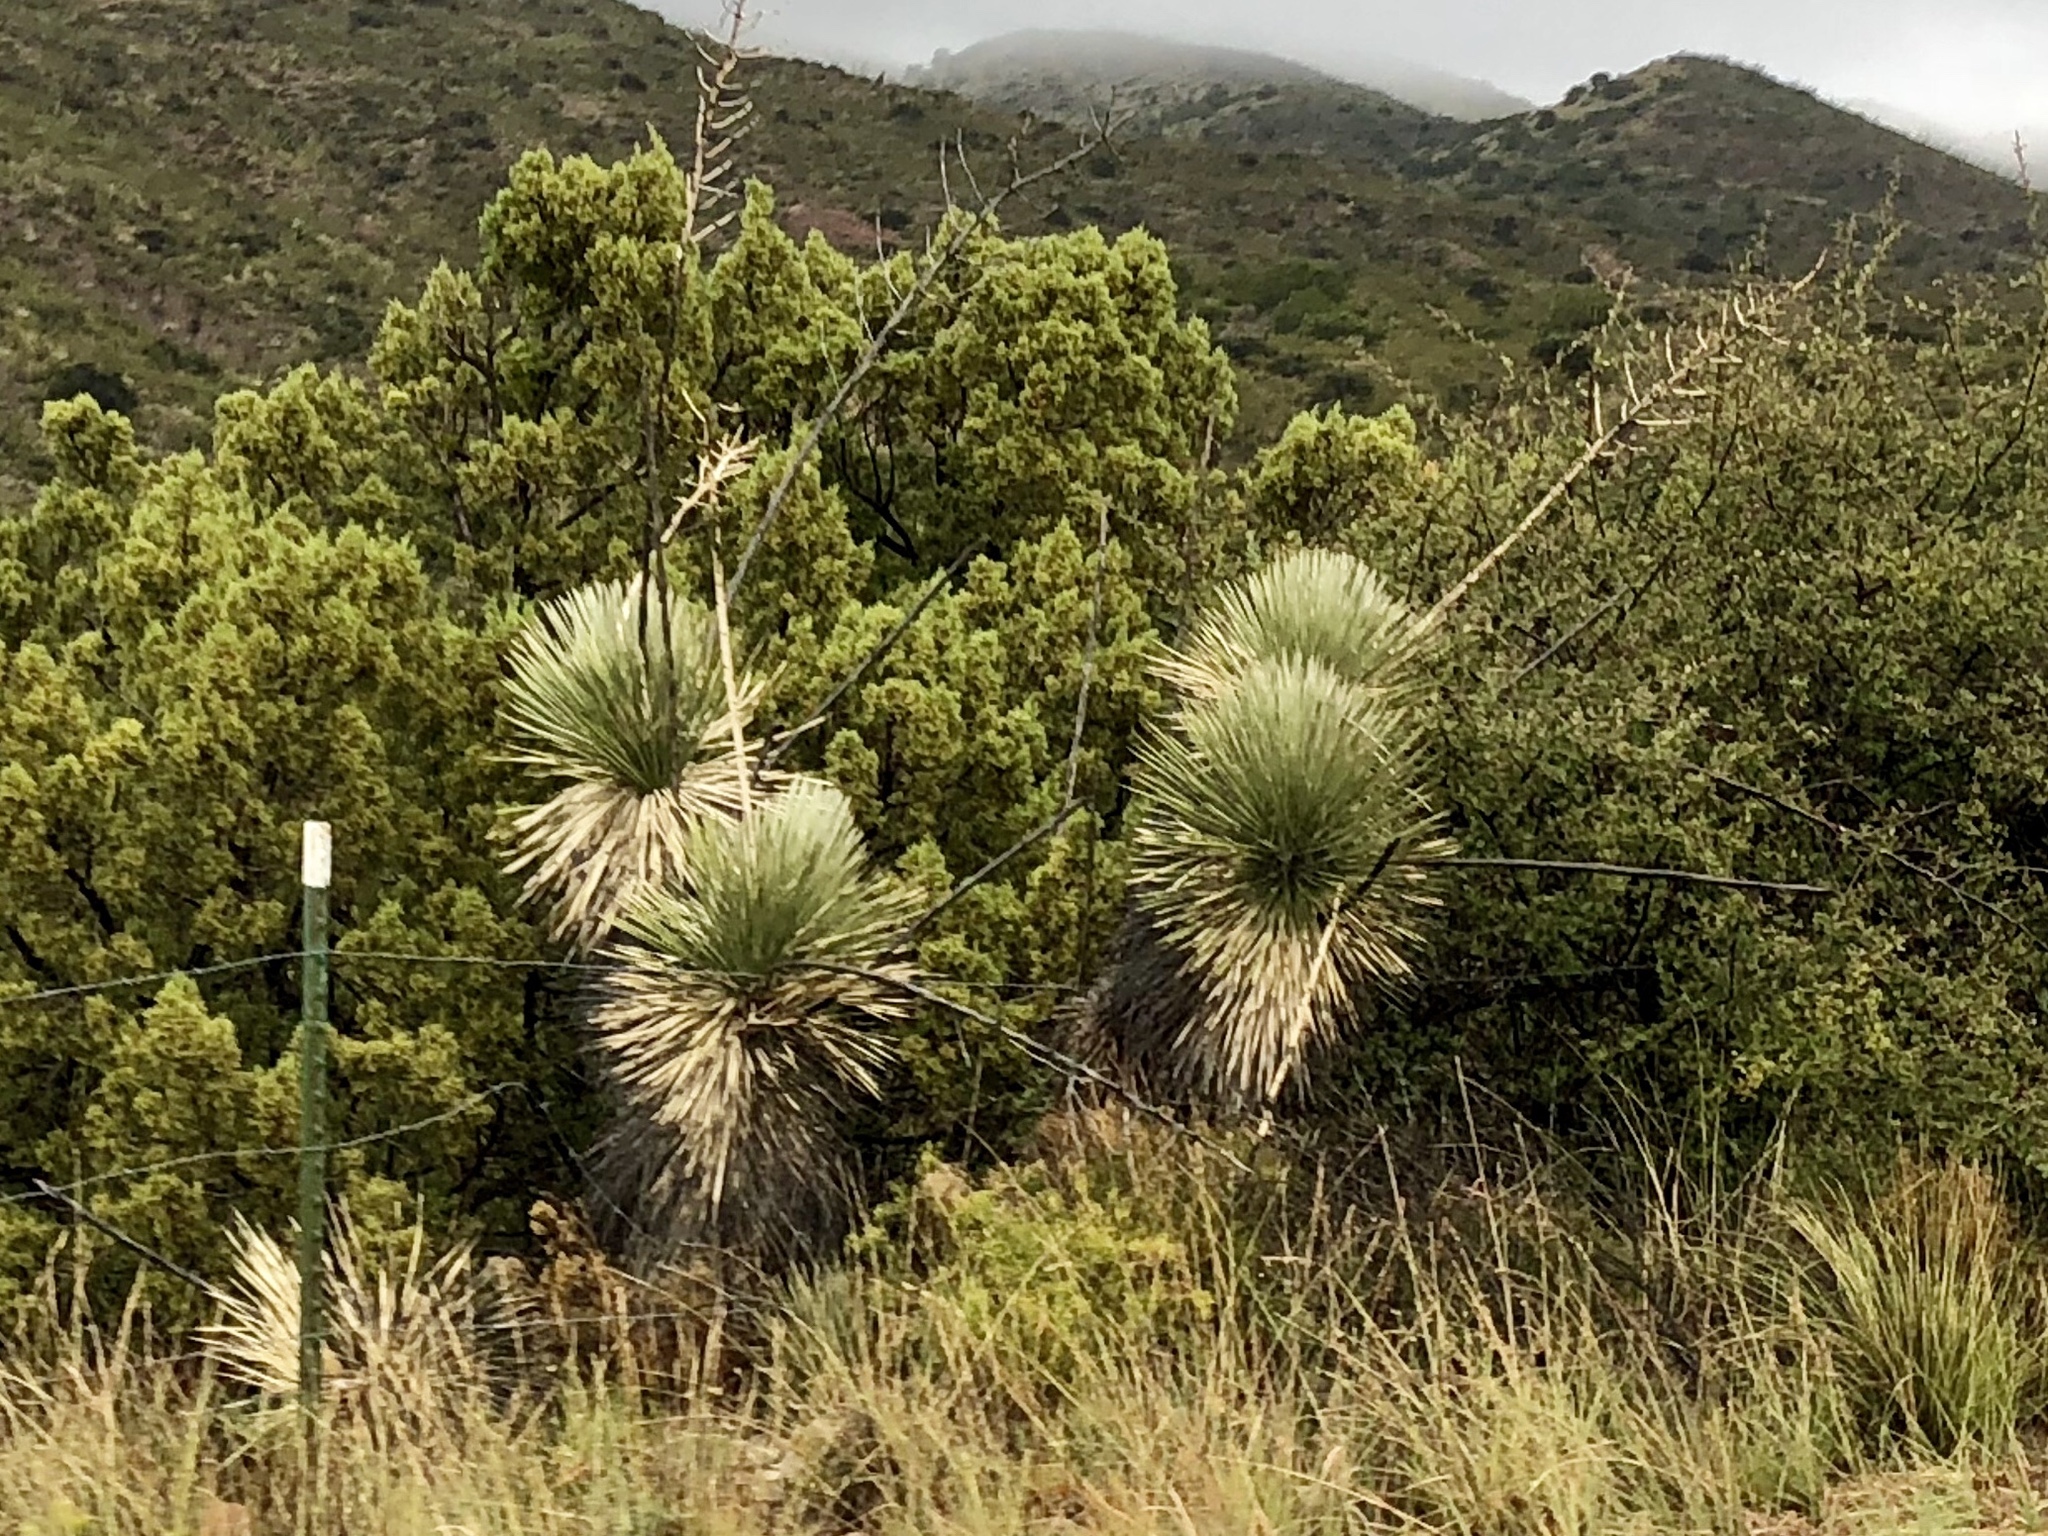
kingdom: Plantae
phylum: Tracheophyta
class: Liliopsida
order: Asparagales
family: Asparagaceae
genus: Yucca
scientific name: Yucca elata
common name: Palmella
